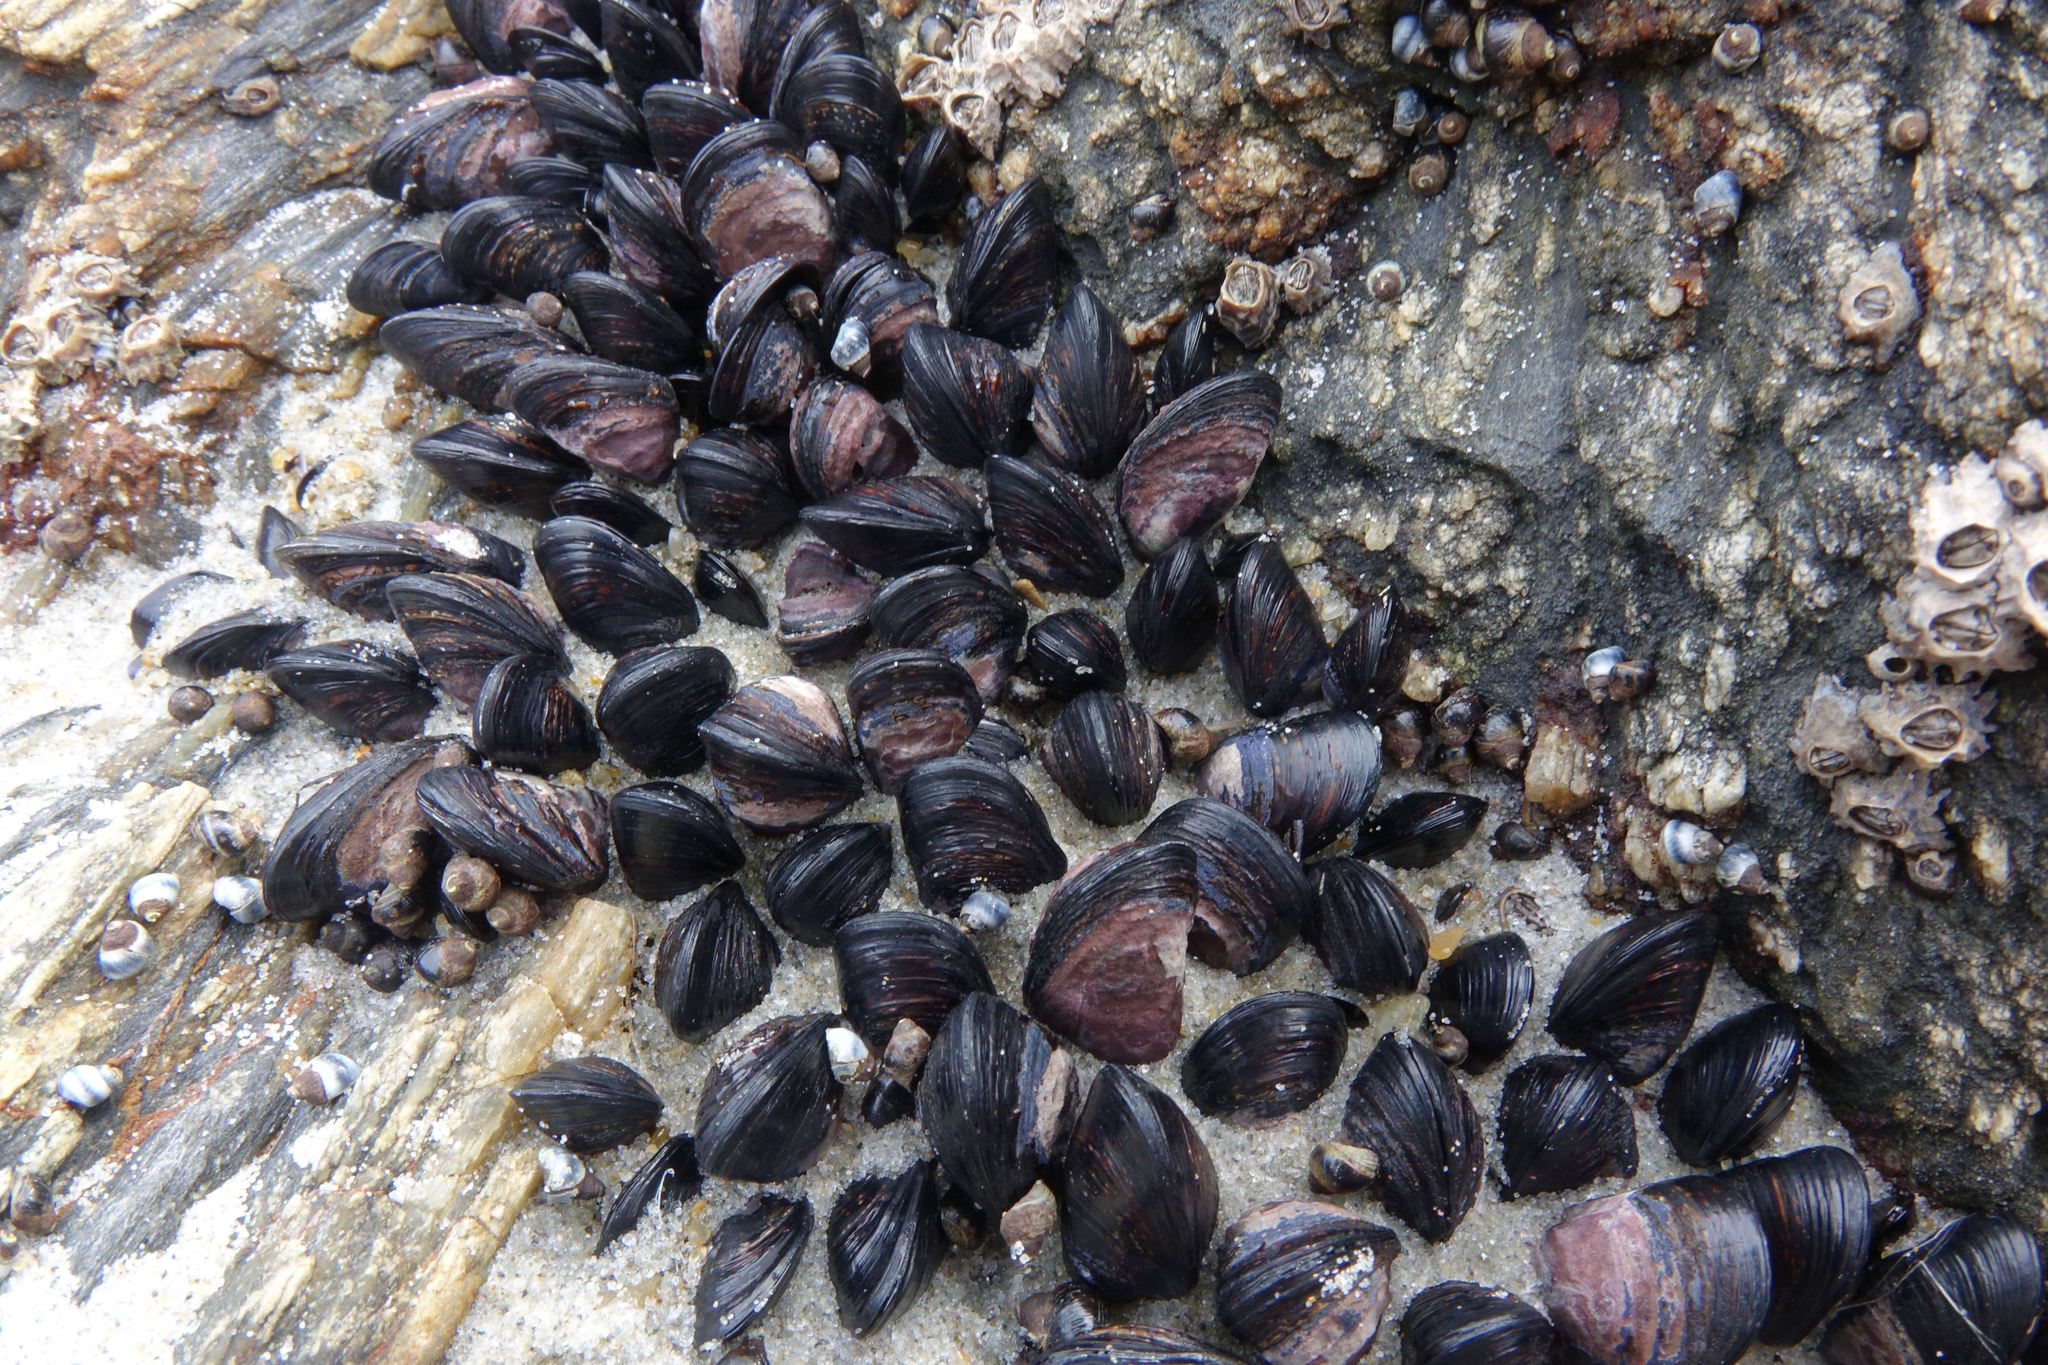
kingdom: Animalia
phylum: Mollusca
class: Bivalvia
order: Mytilida
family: Mytilidae
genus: Xenostrobus
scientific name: Xenostrobus neozelanicus
